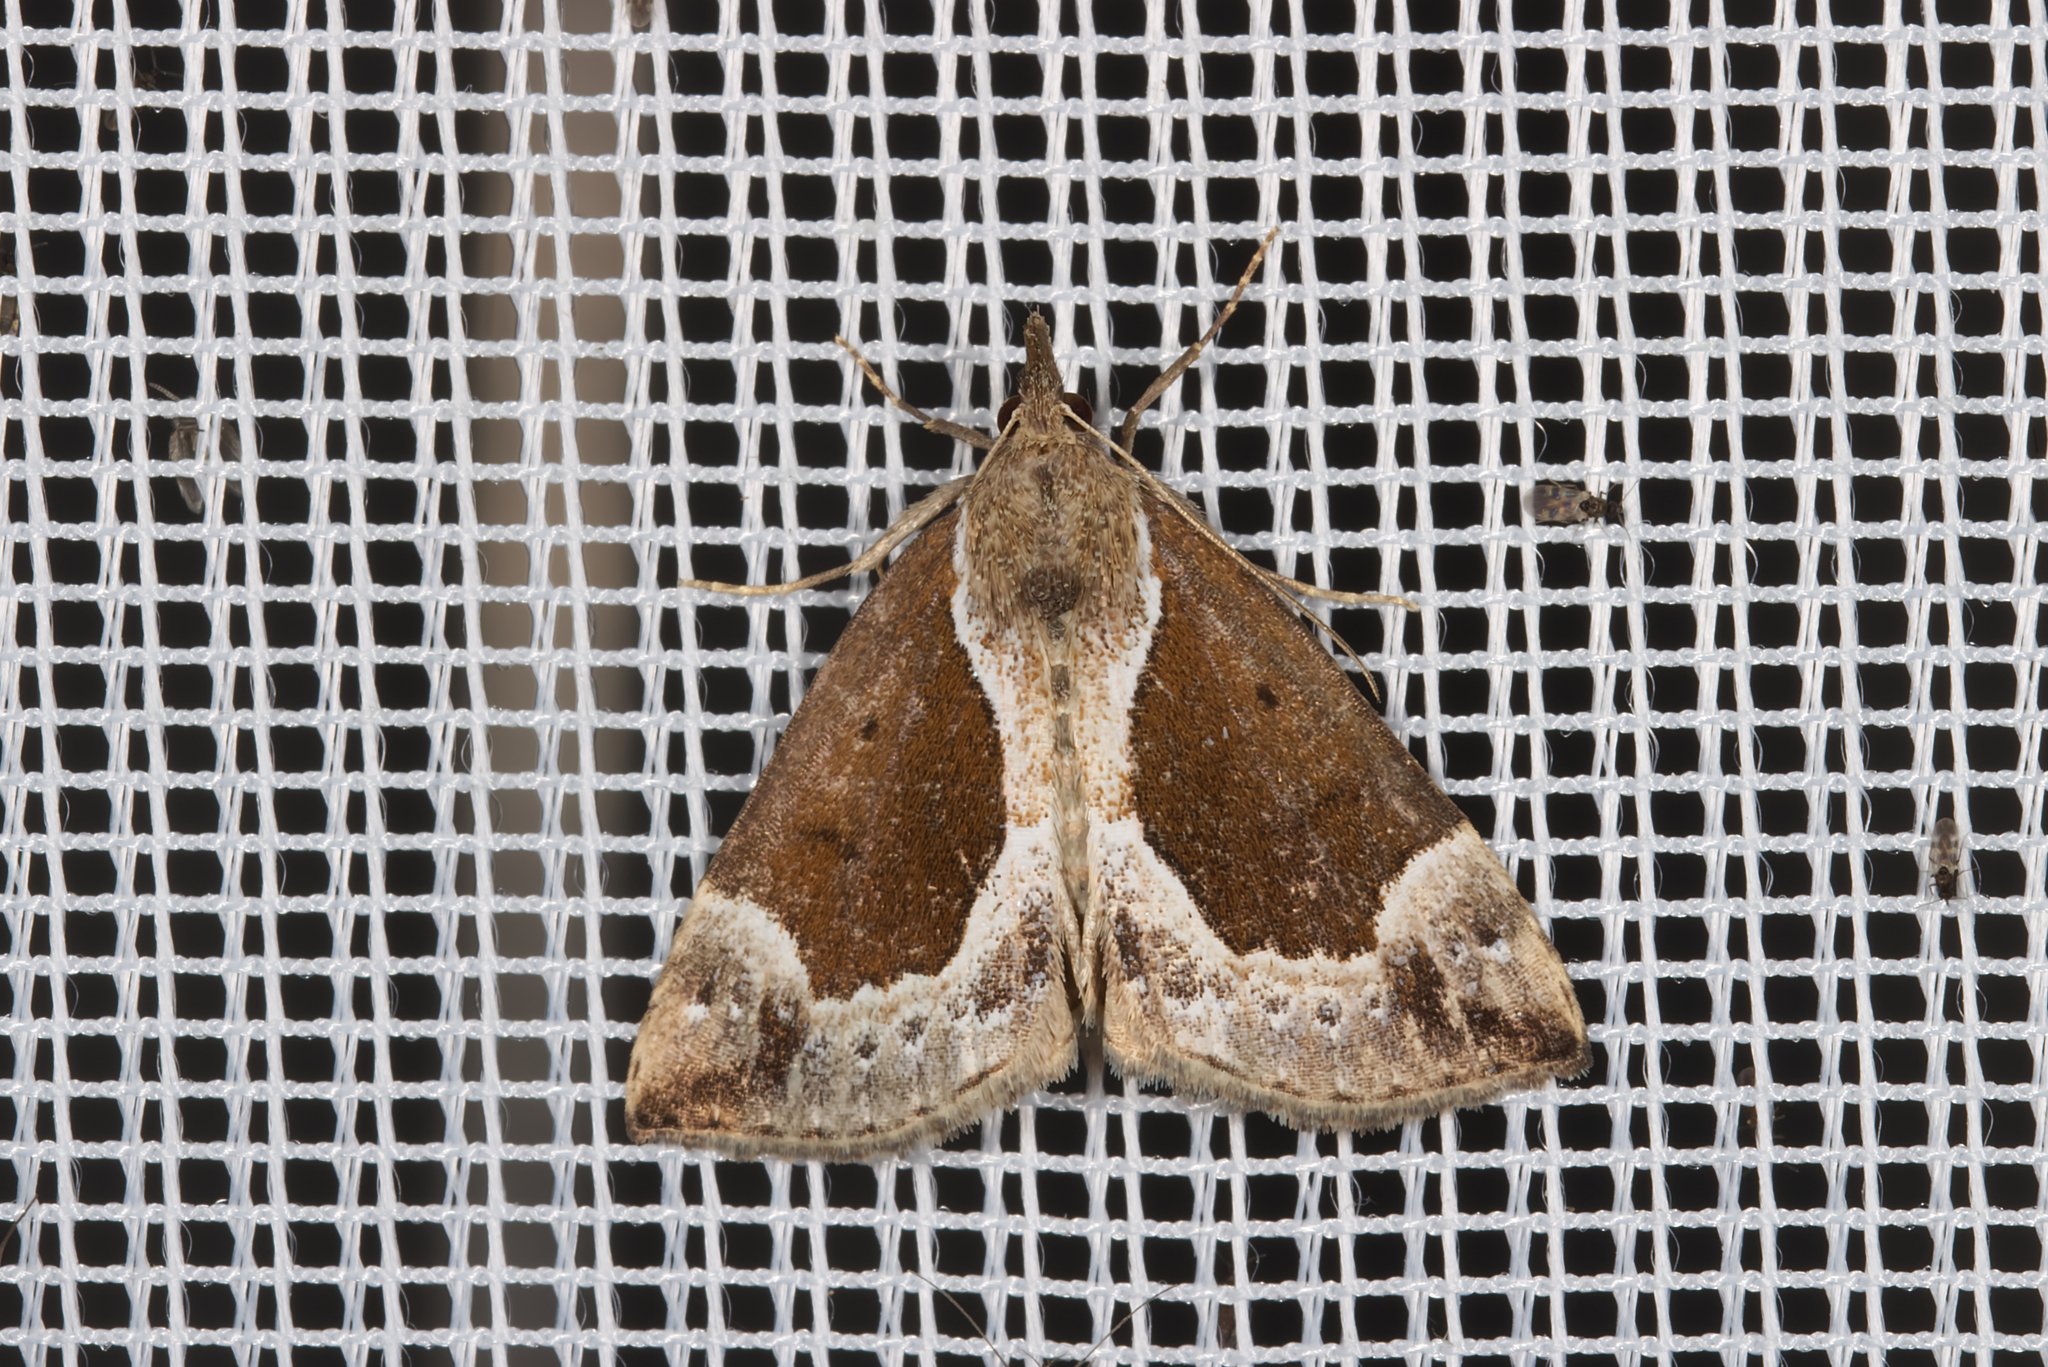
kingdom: Animalia
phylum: Arthropoda
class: Insecta
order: Lepidoptera
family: Erebidae
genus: Hypena
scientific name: Hypena crassalis
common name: Beautiful snout
